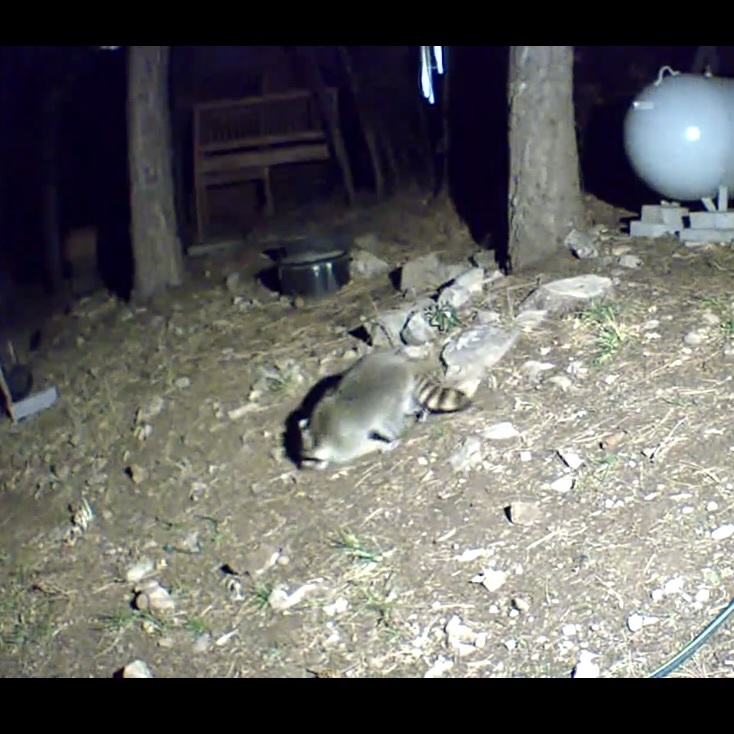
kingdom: Animalia
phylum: Chordata
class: Mammalia
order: Carnivora
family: Procyonidae
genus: Procyon
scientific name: Procyon lotor
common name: Raccoon
